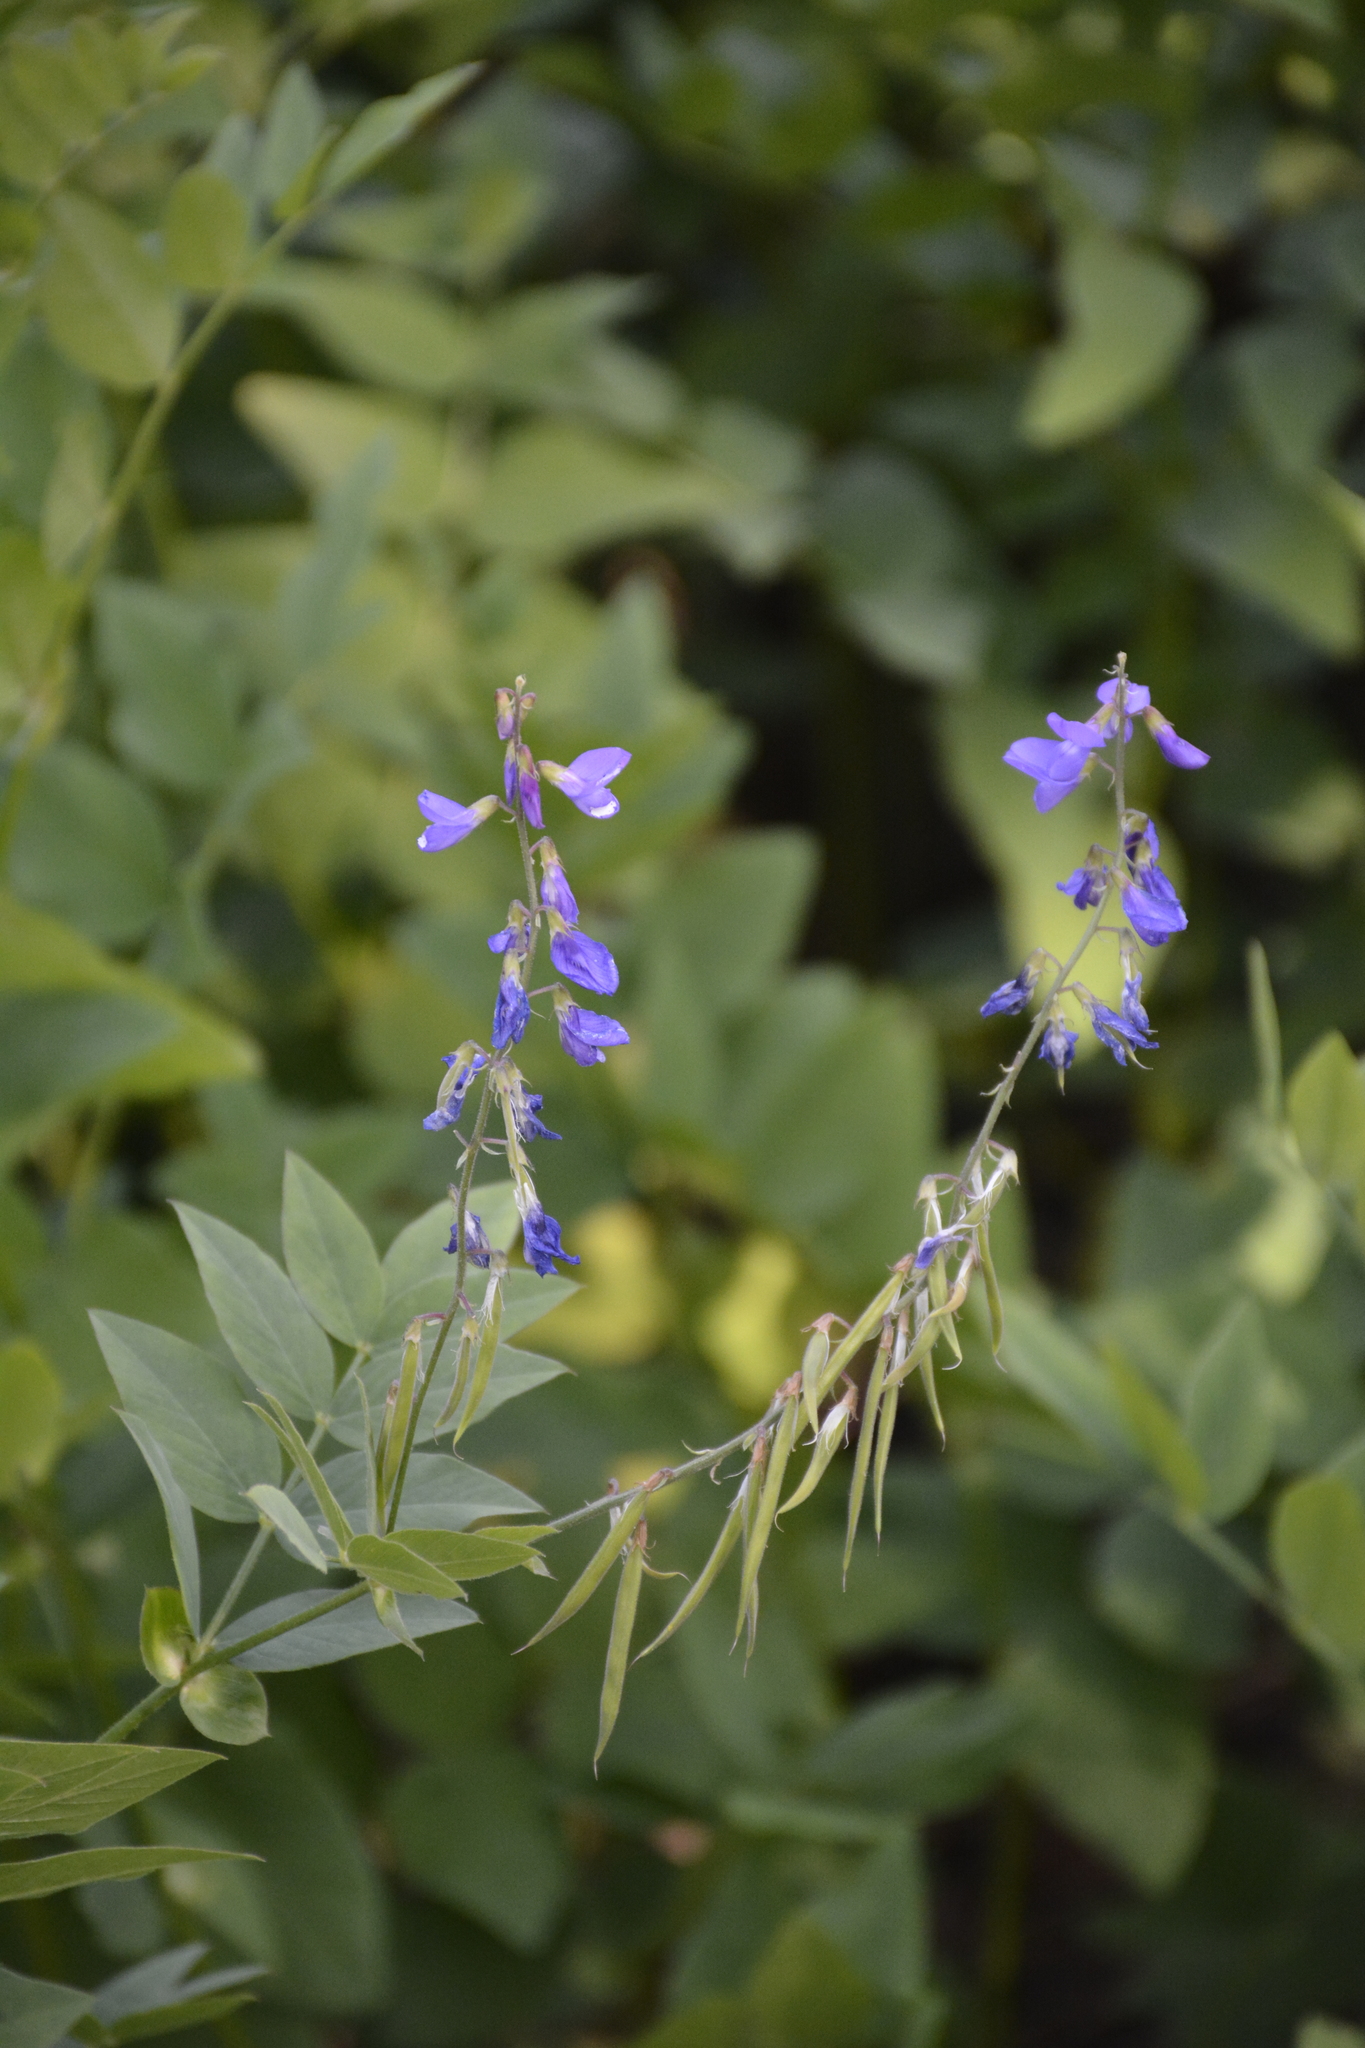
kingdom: Plantae
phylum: Tracheophyta
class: Magnoliopsida
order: Fabales
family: Fabaceae
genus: Galega
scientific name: Galega orientalis
